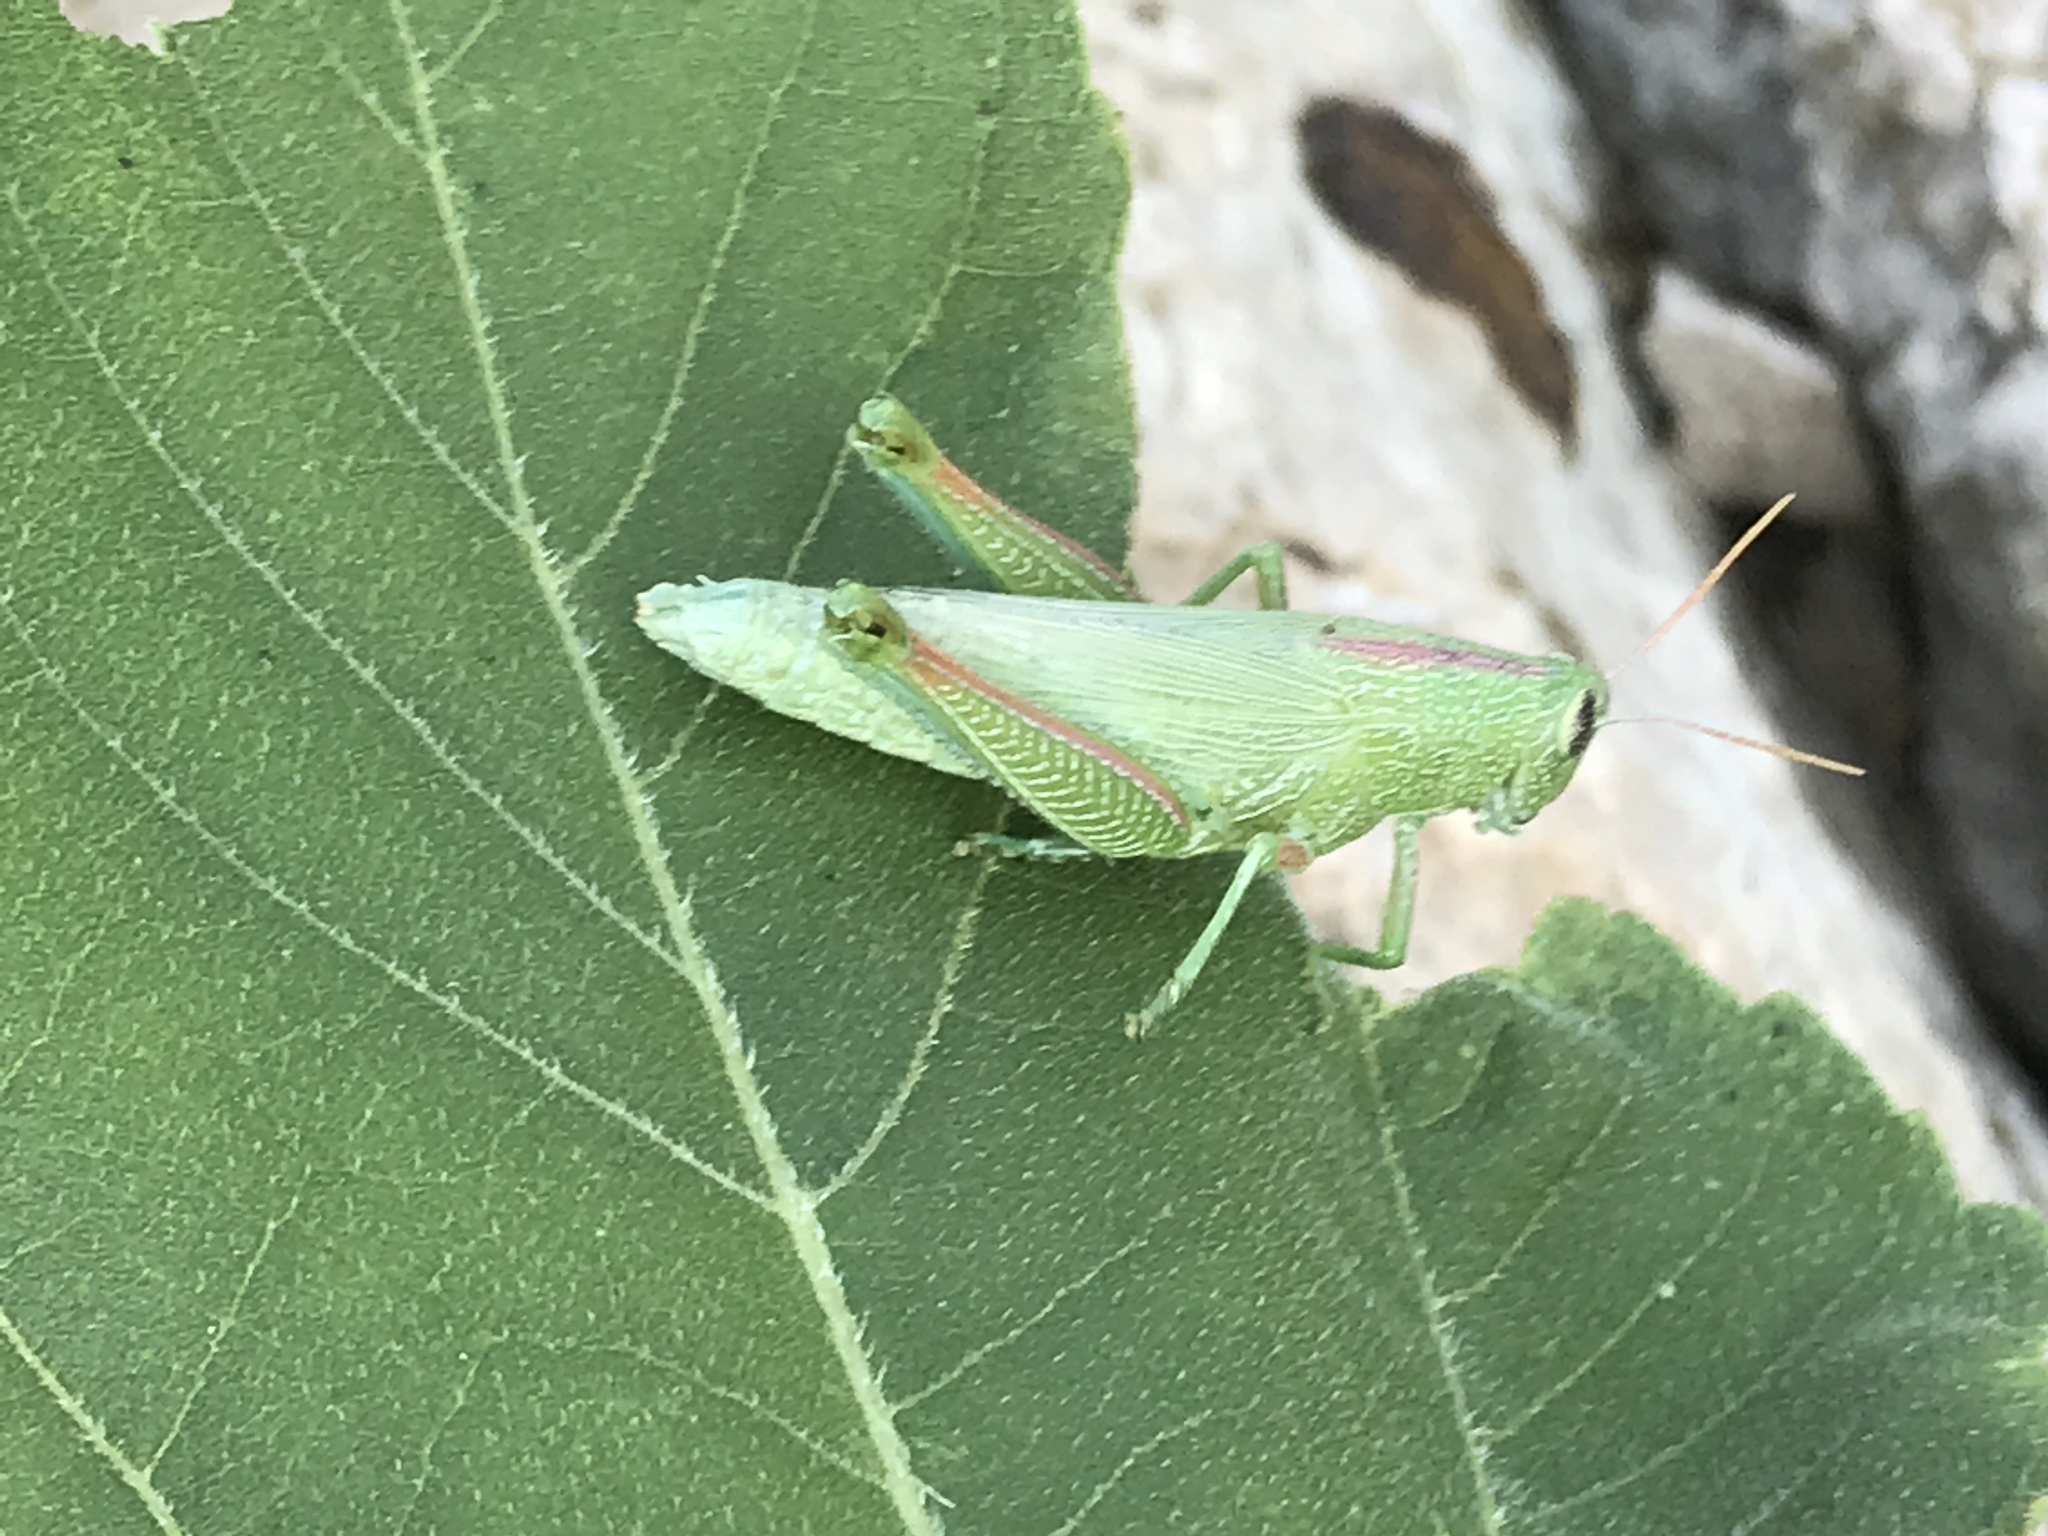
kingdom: Animalia
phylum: Arthropoda
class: Insecta
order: Orthoptera
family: Acrididae
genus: Hesperotettix
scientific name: Hesperotettix speciosus
